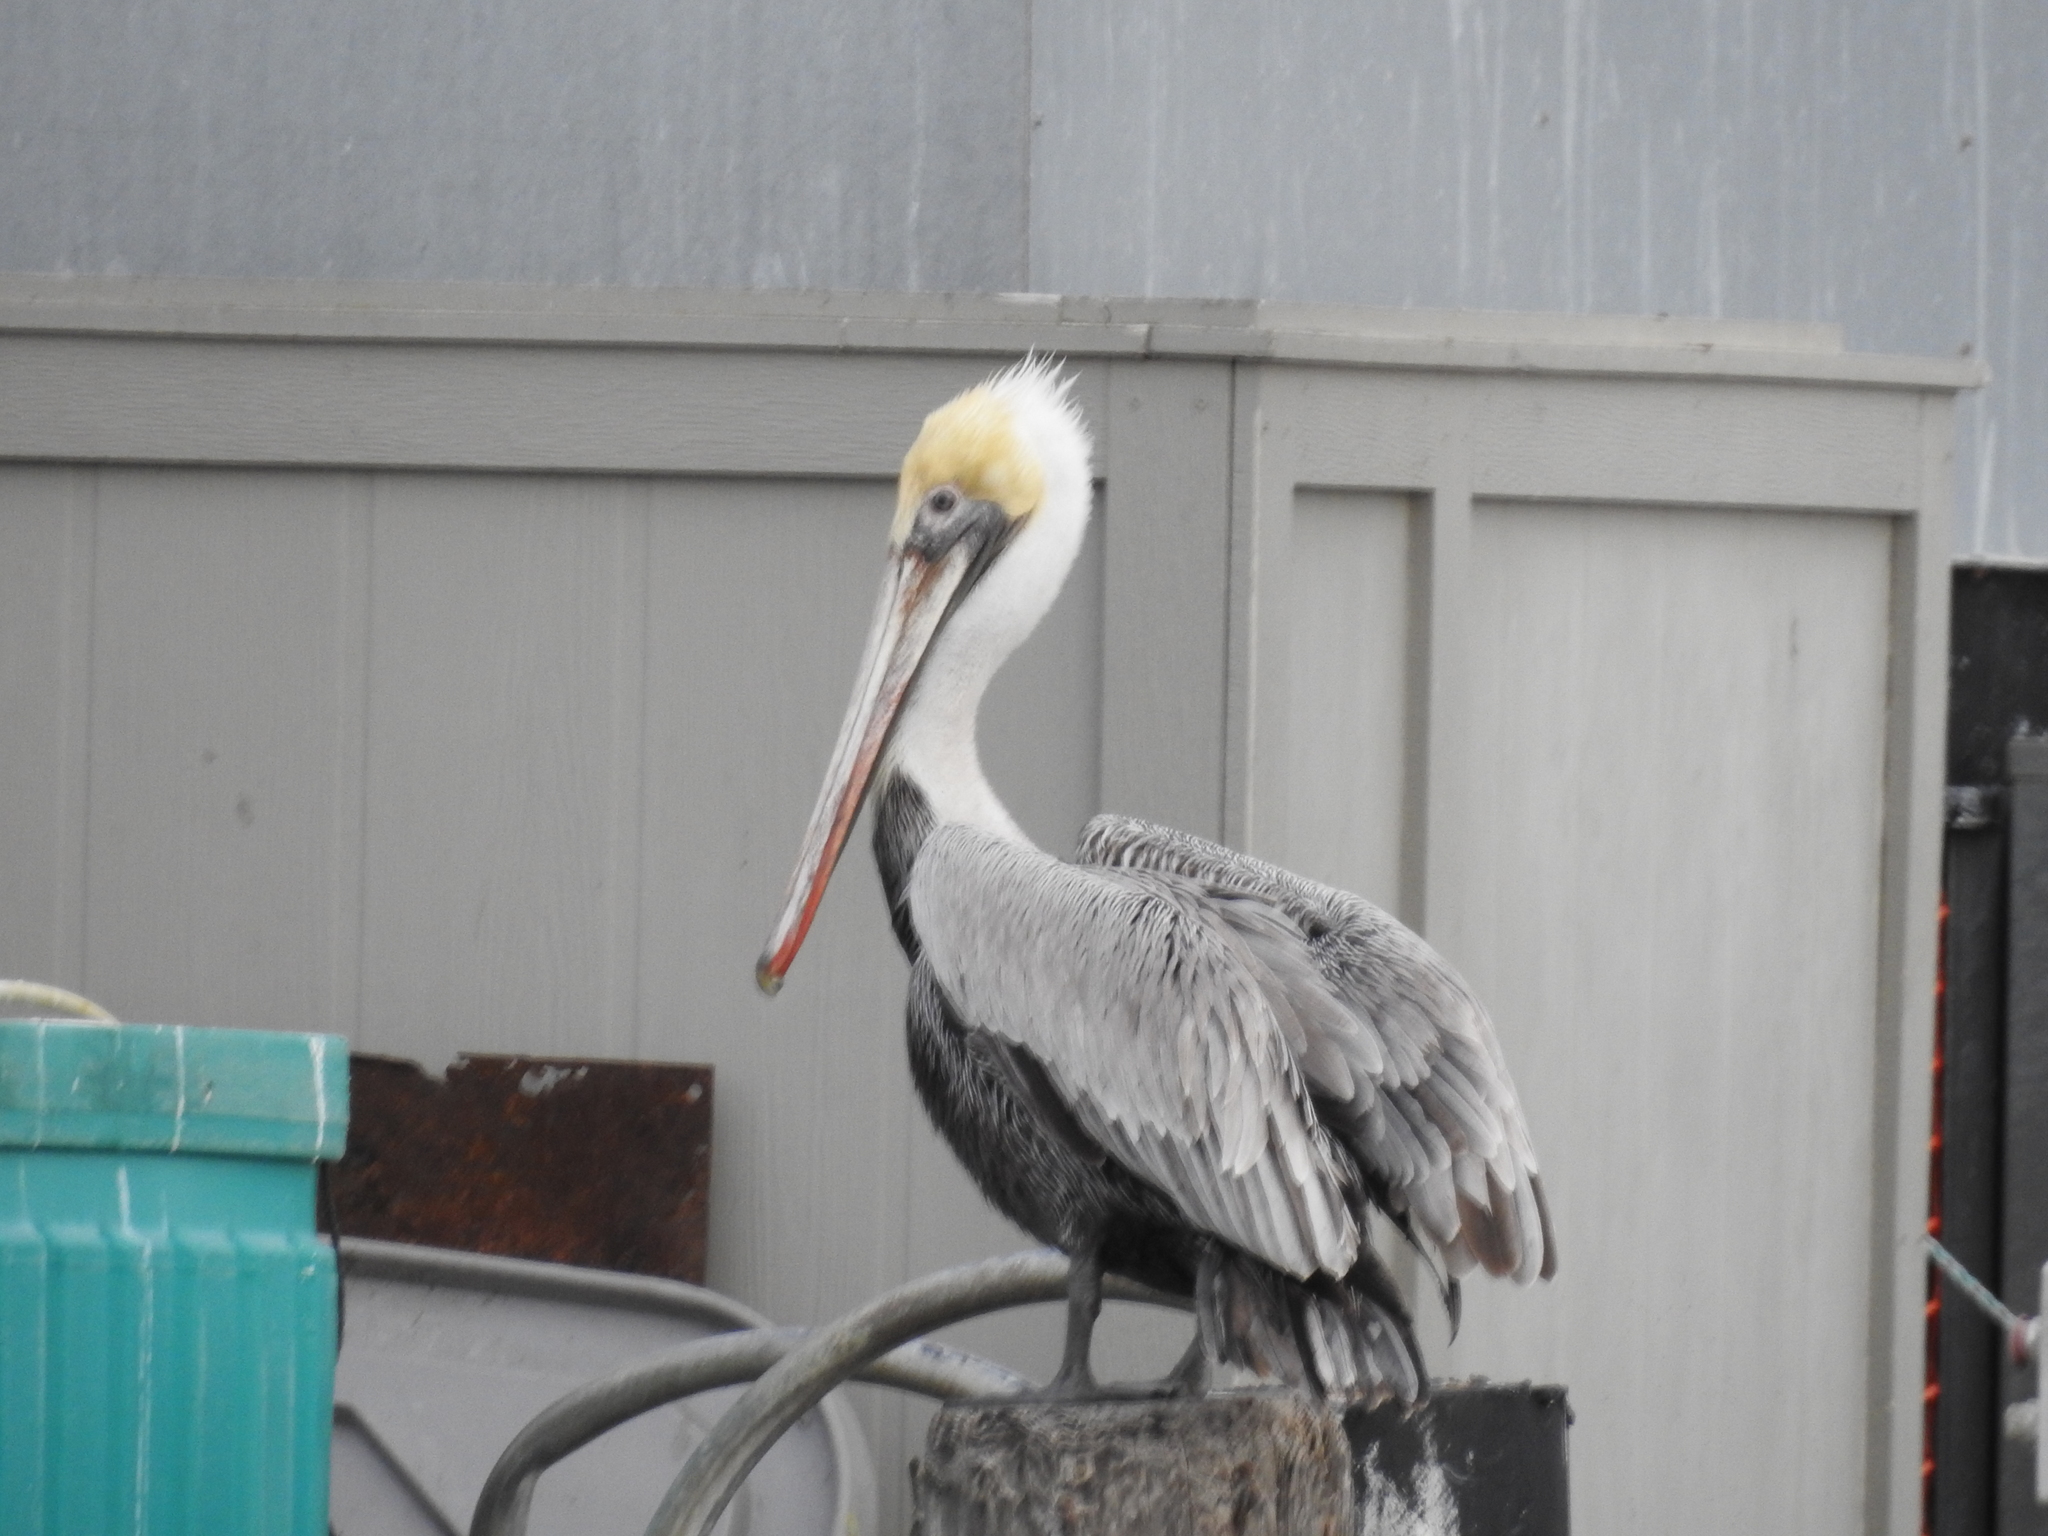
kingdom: Animalia
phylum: Chordata
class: Aves
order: Pelecaniformes
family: Pelecanidae
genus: Pelecanus
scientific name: Pelecanus occidentalis
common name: Brown pelican
